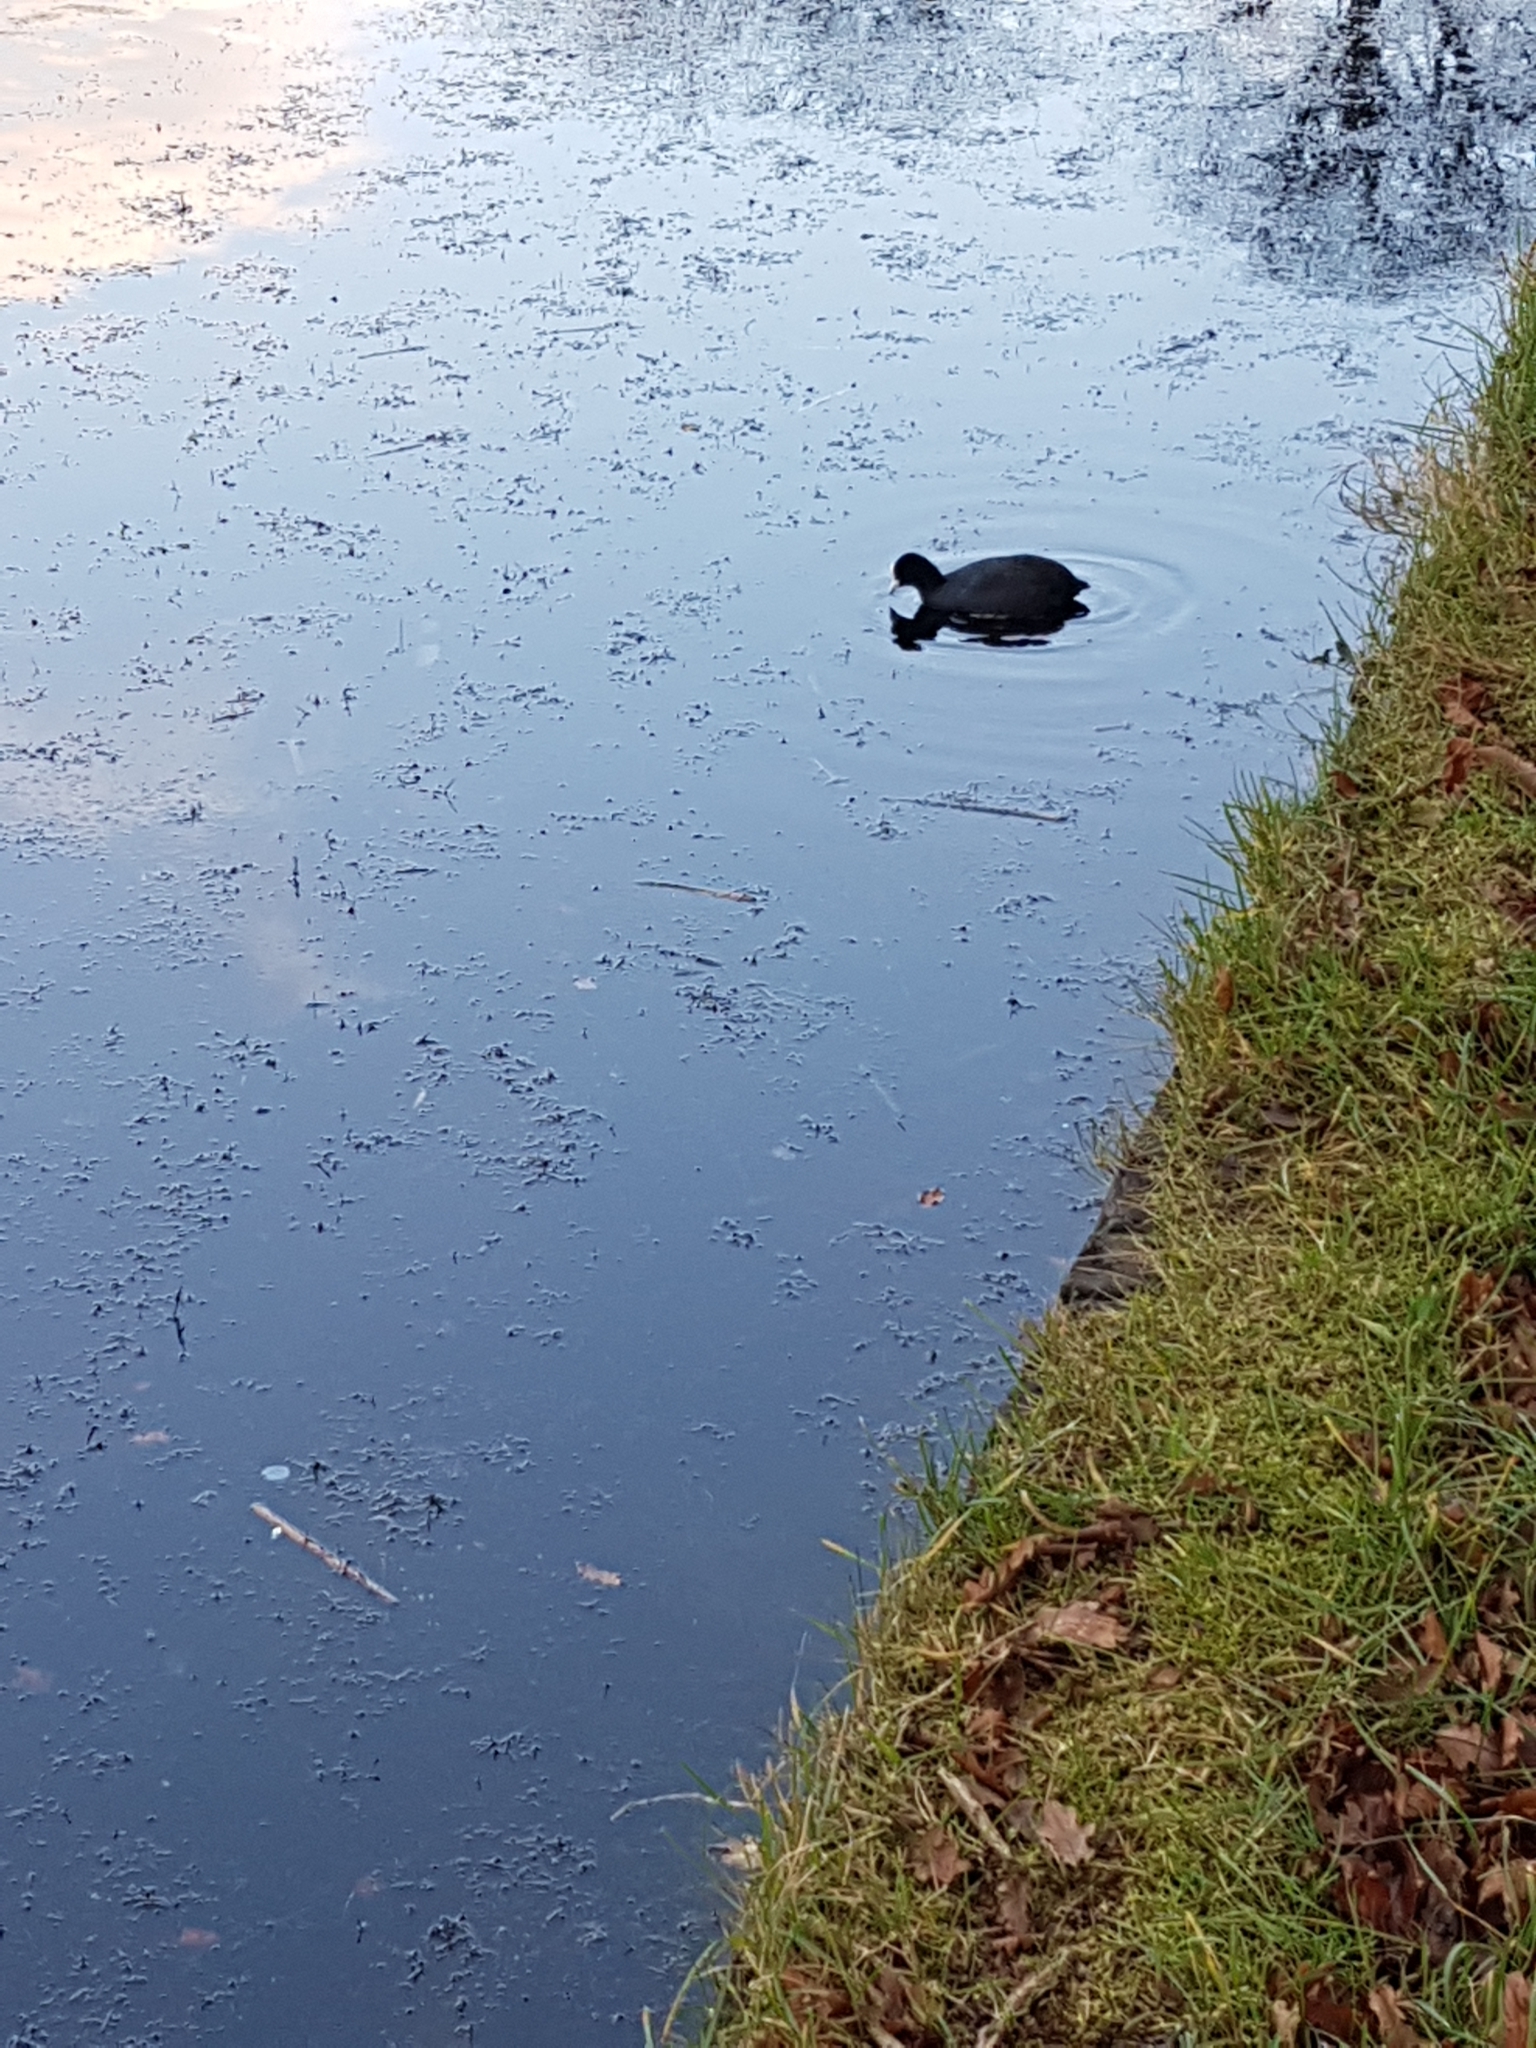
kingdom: Animalia
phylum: Chordata
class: Aves
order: Gruiformes
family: Rallidae
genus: Fulica
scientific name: Fulica atra
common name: Eurasian coot
